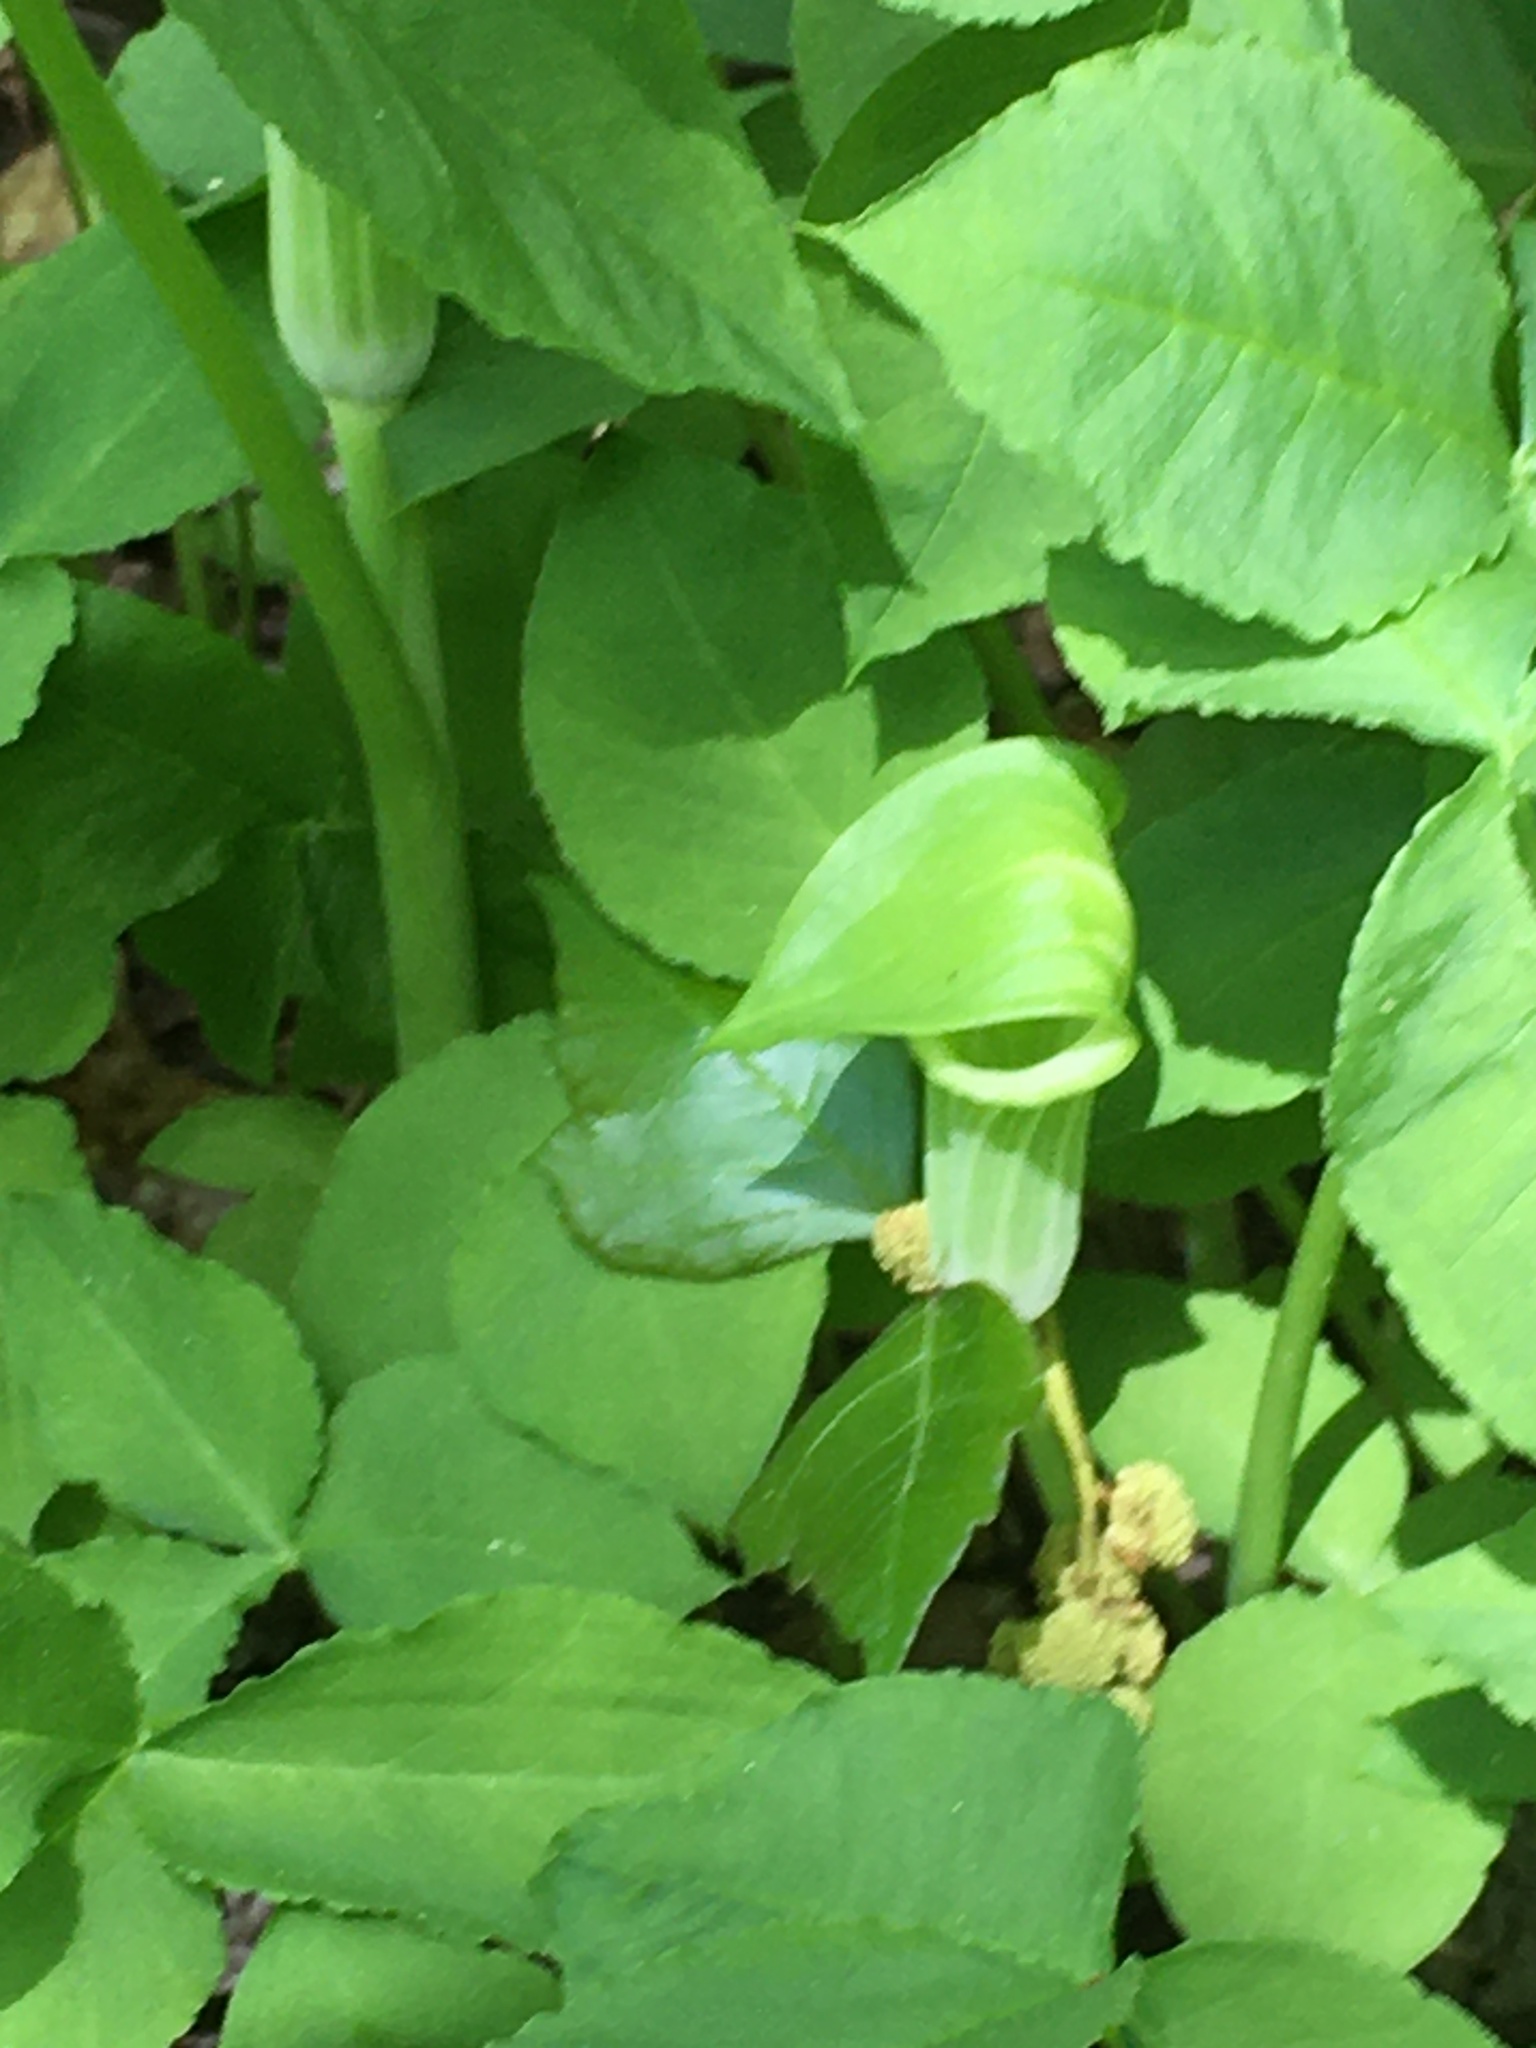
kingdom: Plantae
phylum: Tracheophyta
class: Liliopsida
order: Alismatales
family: Araceae
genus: Arisaema
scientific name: Arisaema triphyllum
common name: Jack-in-the-pulpit
